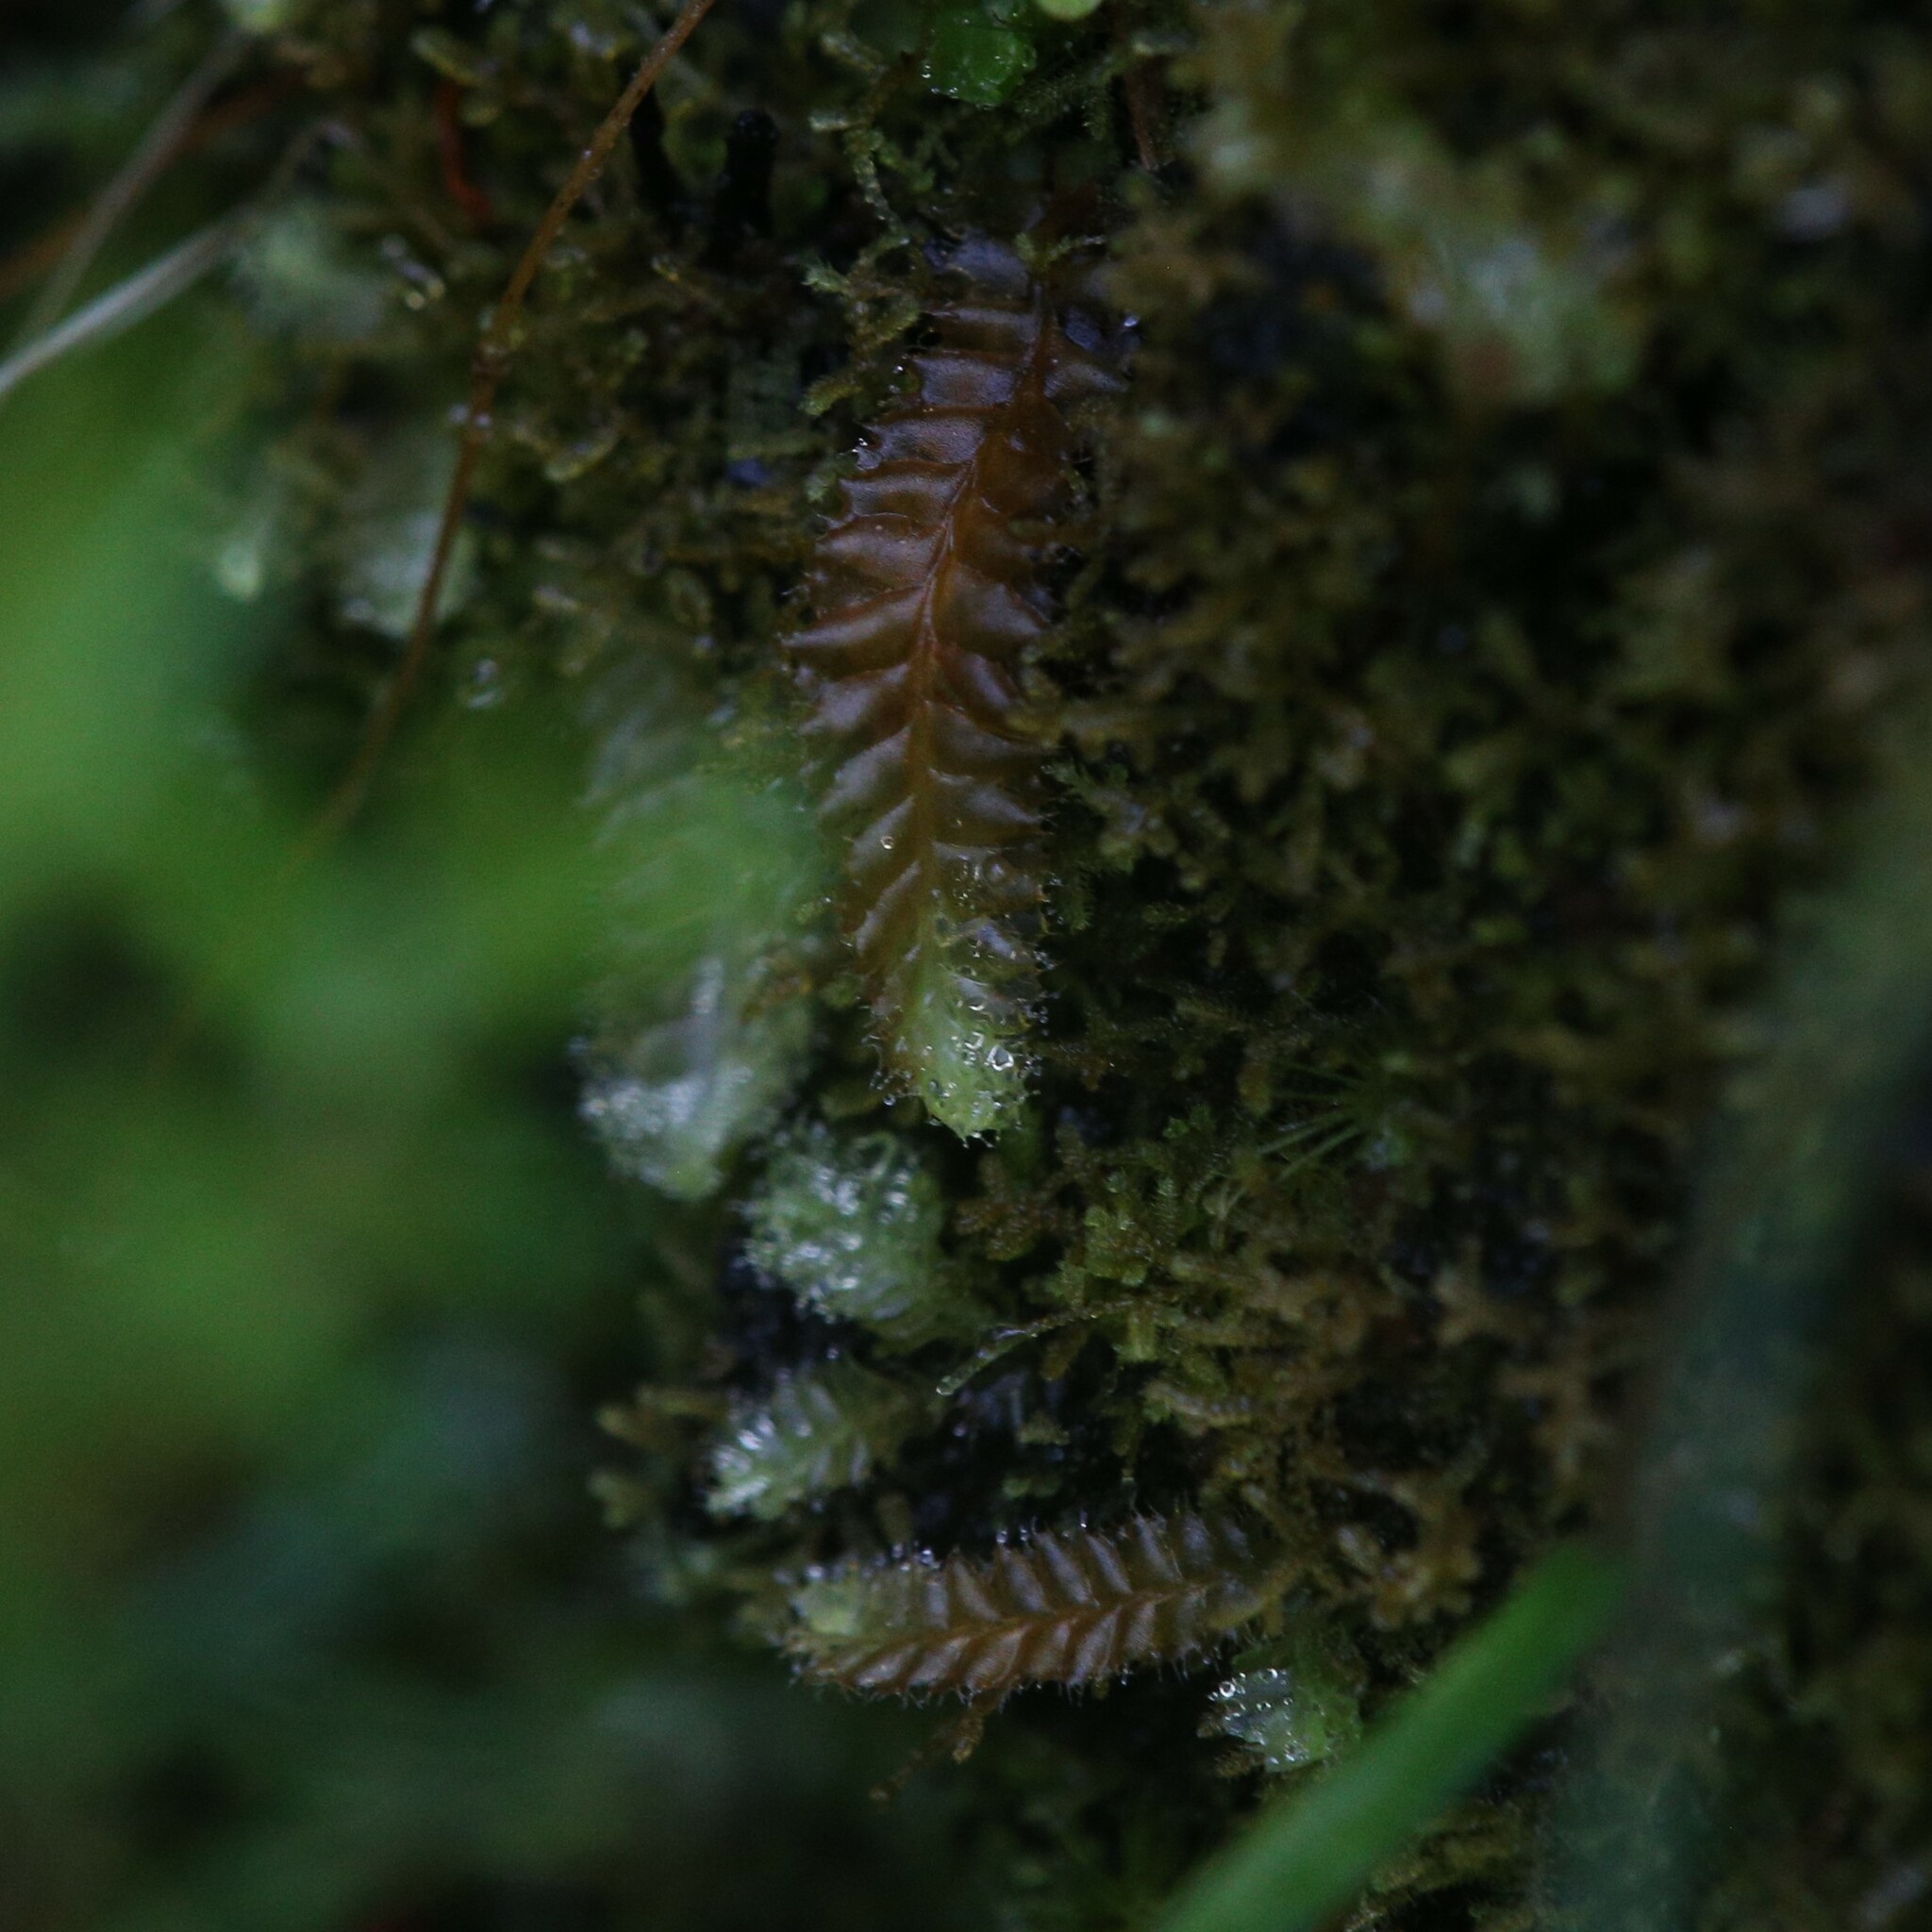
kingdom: Plantae
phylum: Marchantiophyta
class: Jungermanniopsida
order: Jungermanniales
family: Acrobolbaceae
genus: Goebelobryum
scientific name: Goebelobryum unguiculatum
